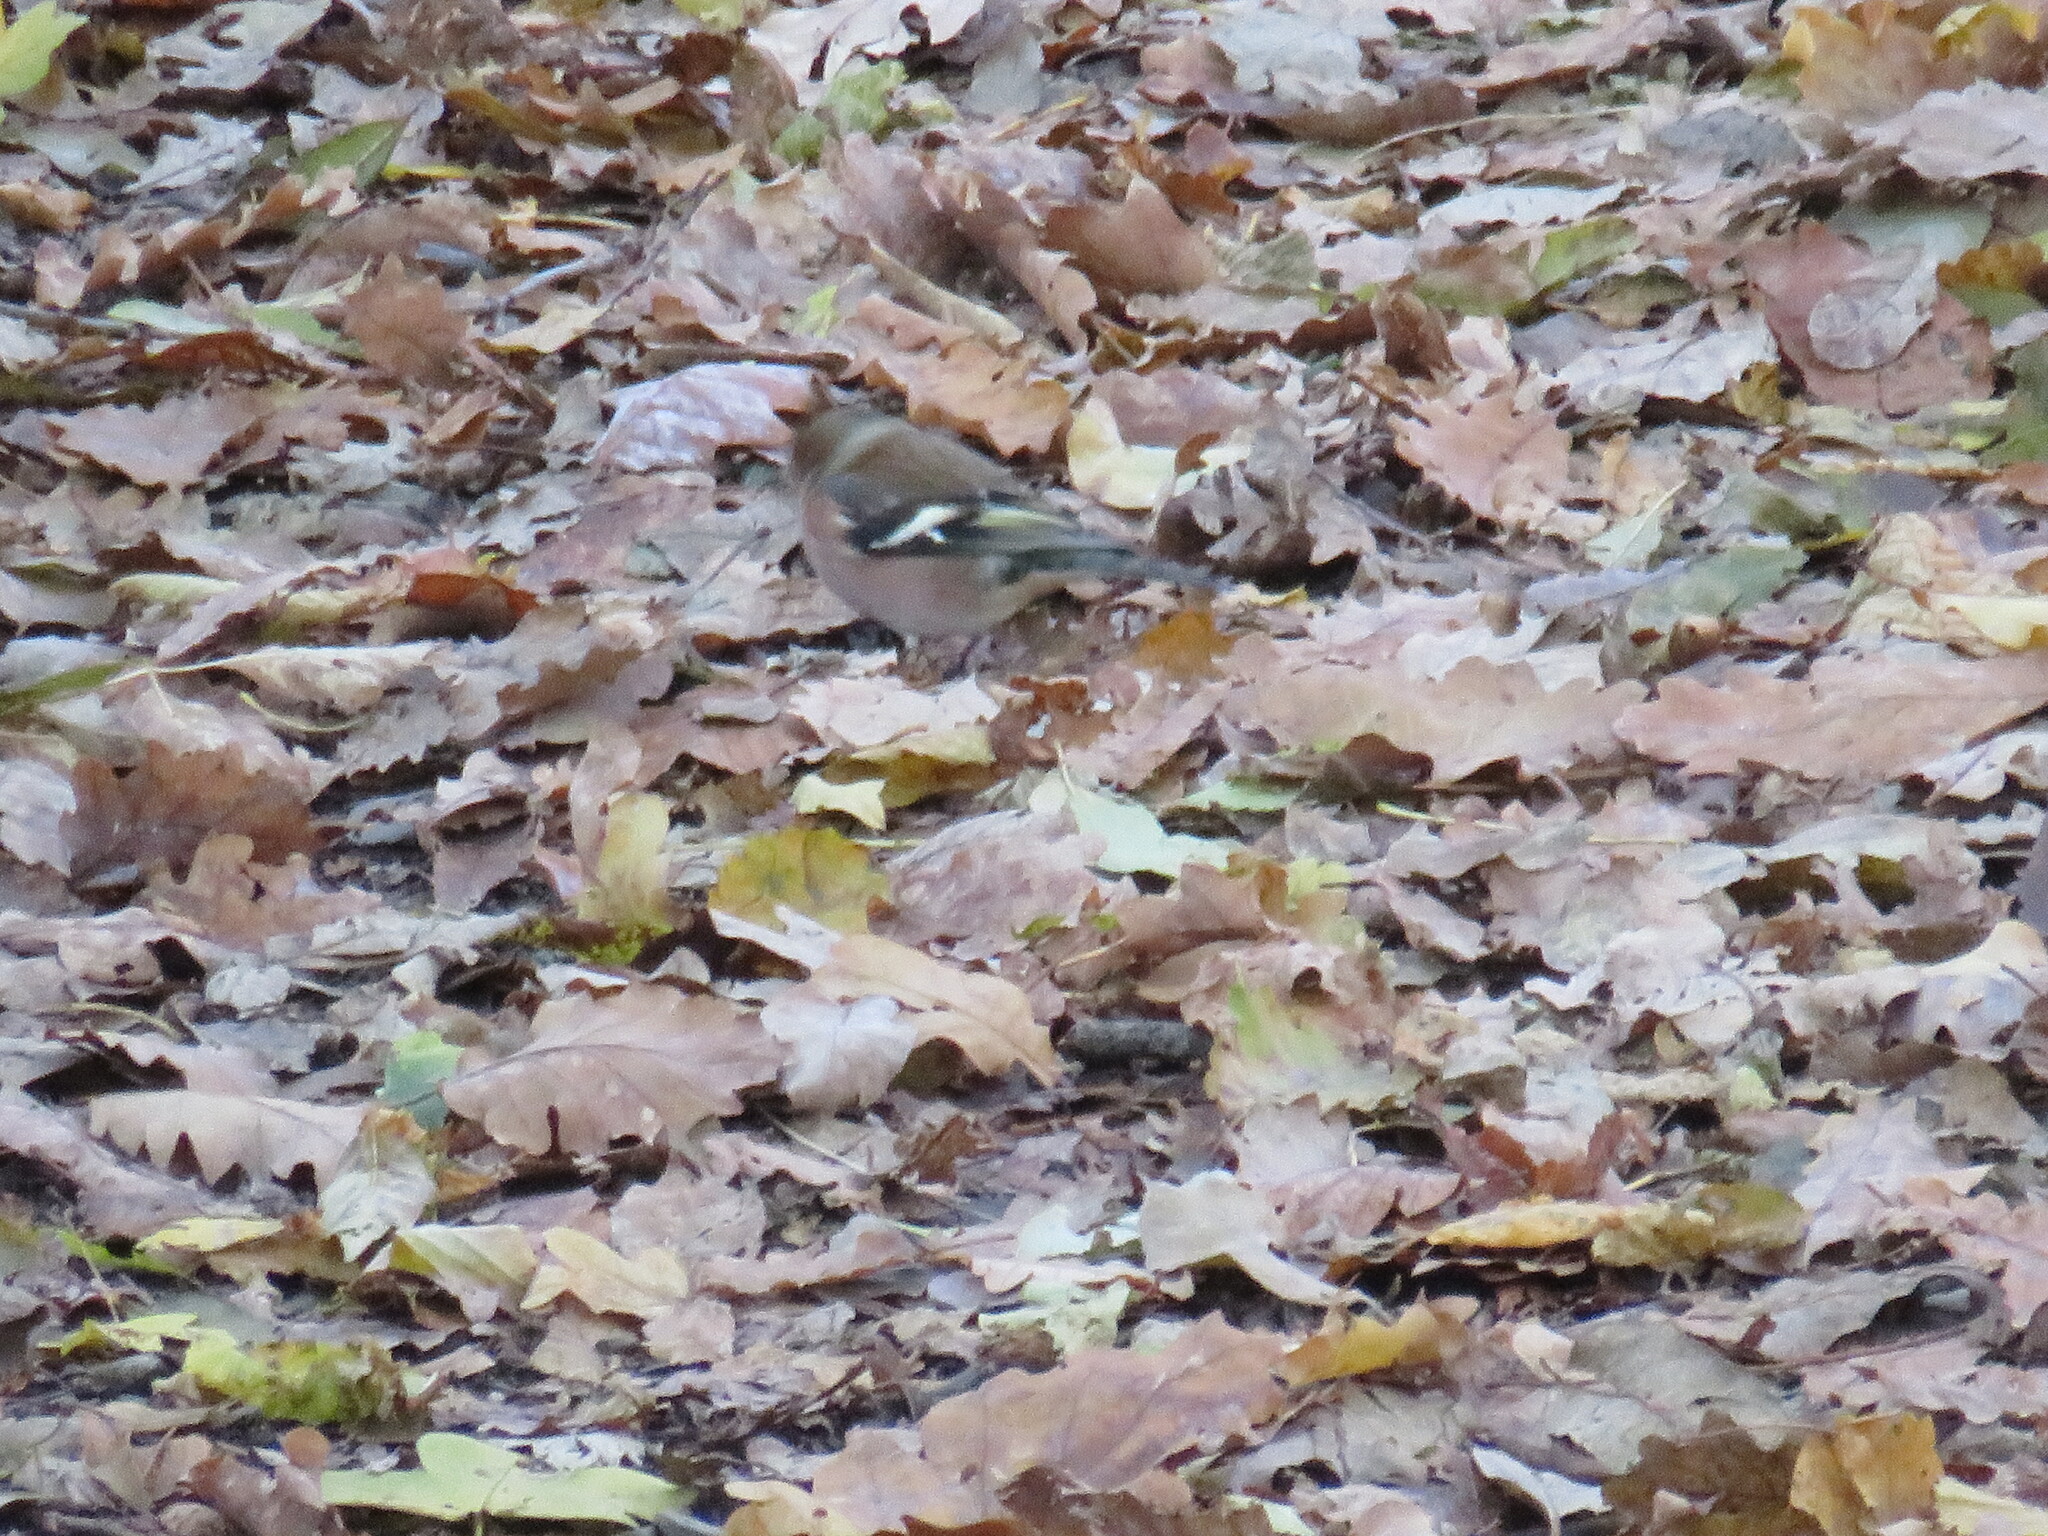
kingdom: Animalia
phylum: Chordata
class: Aves
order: Passeriformes
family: Fringillidae
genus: Fringilla
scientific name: Fringilla coelebs
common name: Common chaffinch
